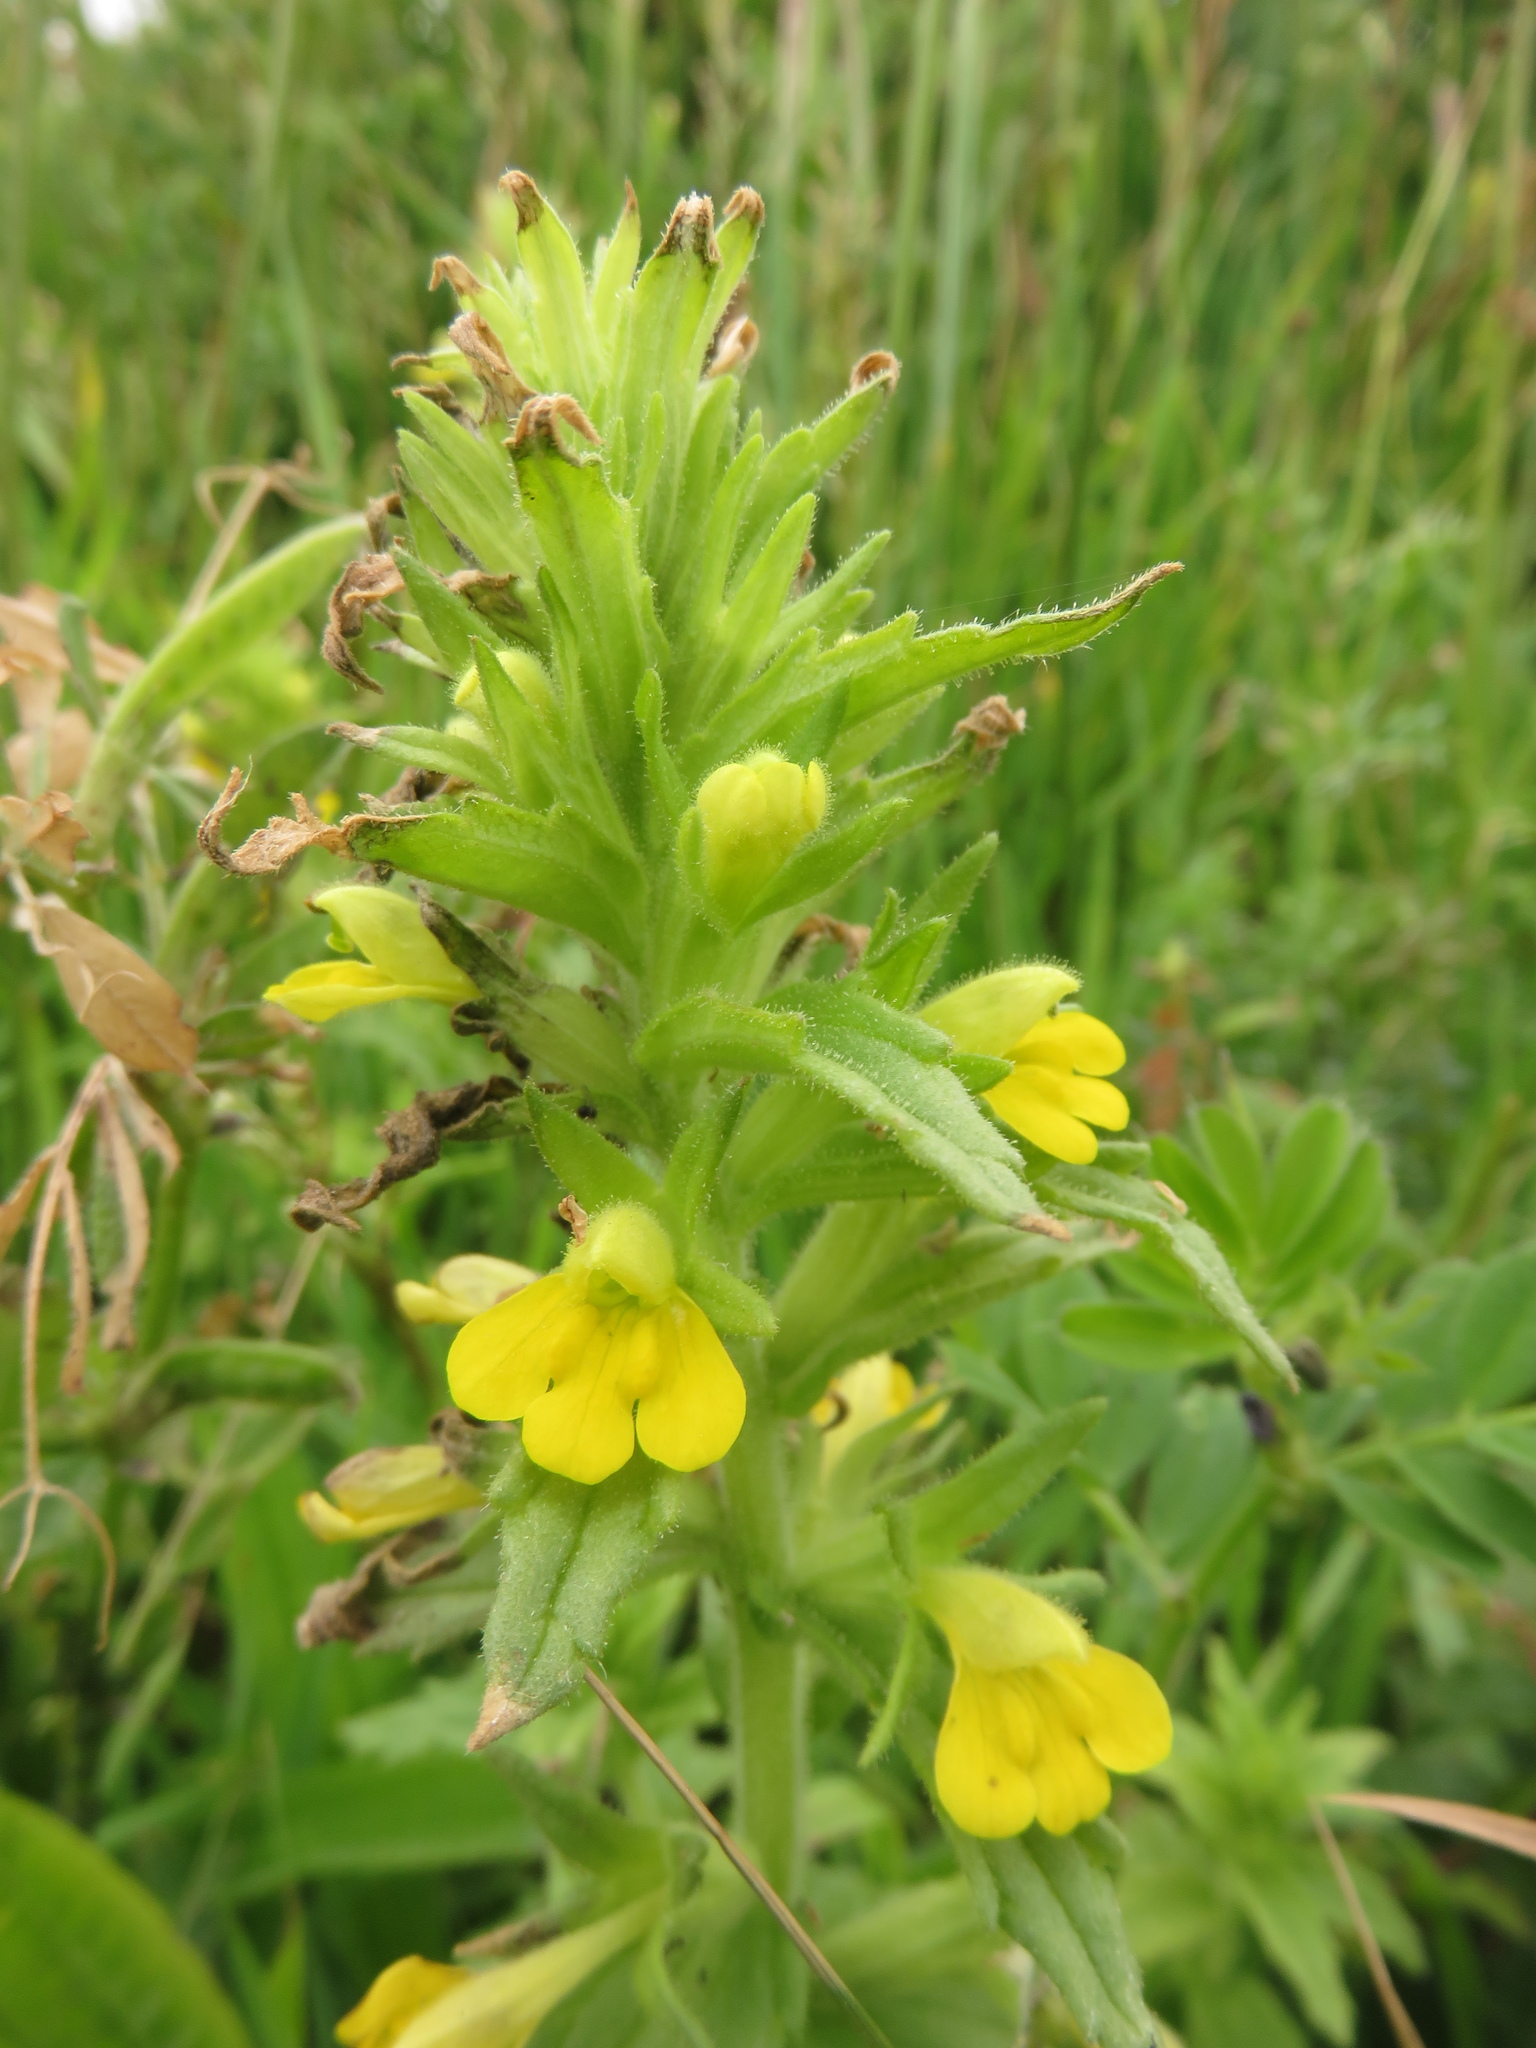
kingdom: Plantae
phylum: Tracheophyta
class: Magnoliopsida
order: Lamiales
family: Orobanchaceae
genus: Bellardia
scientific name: Bellardia viscosa
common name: Sticky parentucellia
